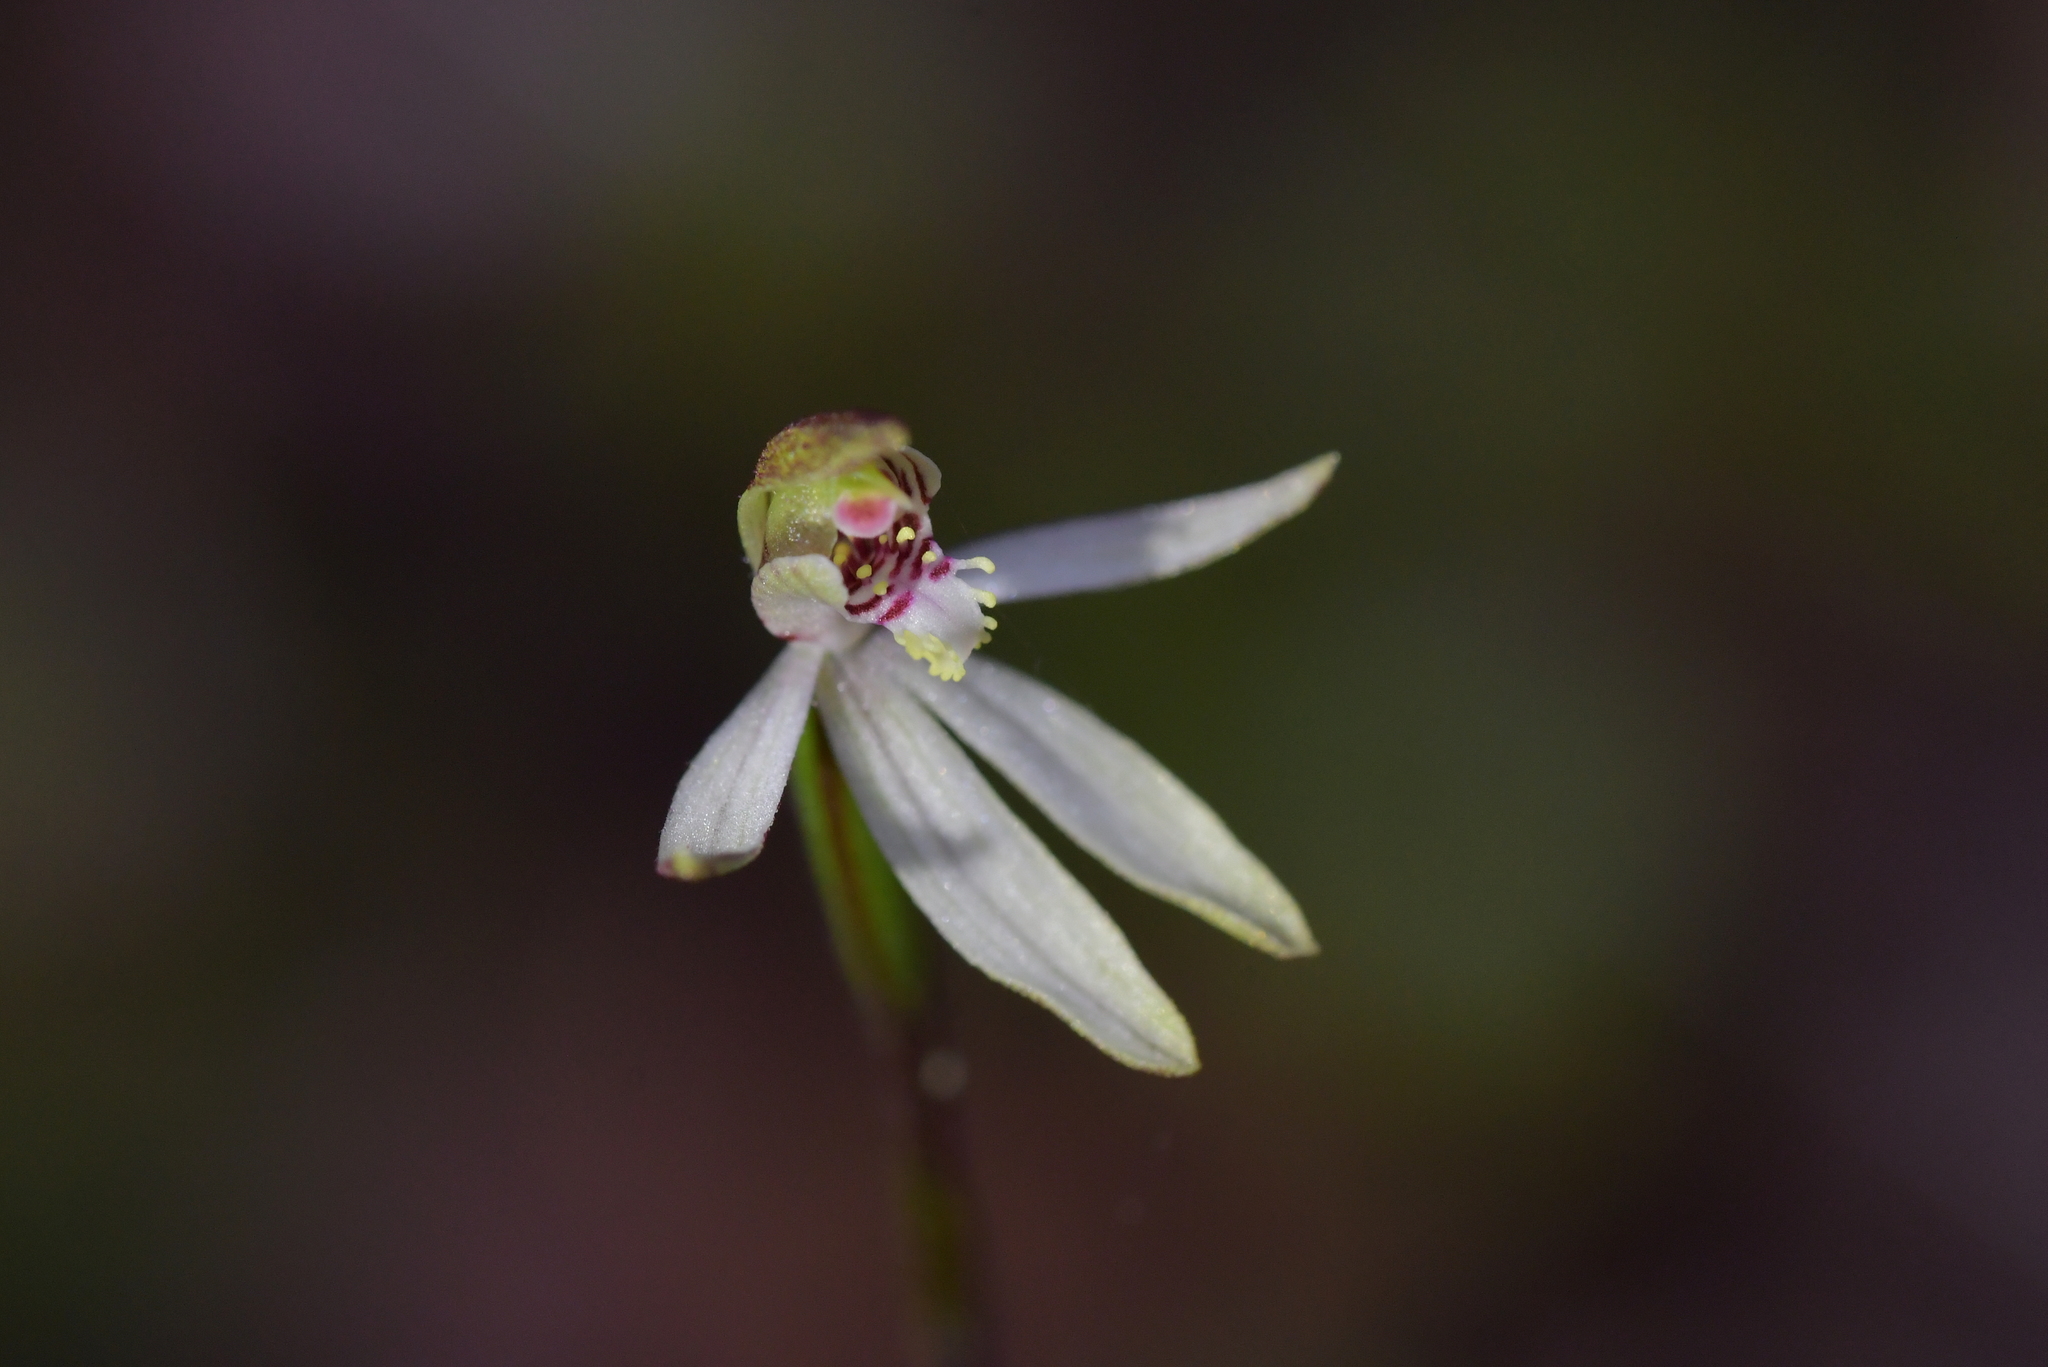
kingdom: Plantae
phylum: Tracheophyta
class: Liliopsida
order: Asparagales
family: Orchidaceae
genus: Caladenia
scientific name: Caladenia chlorostyla
